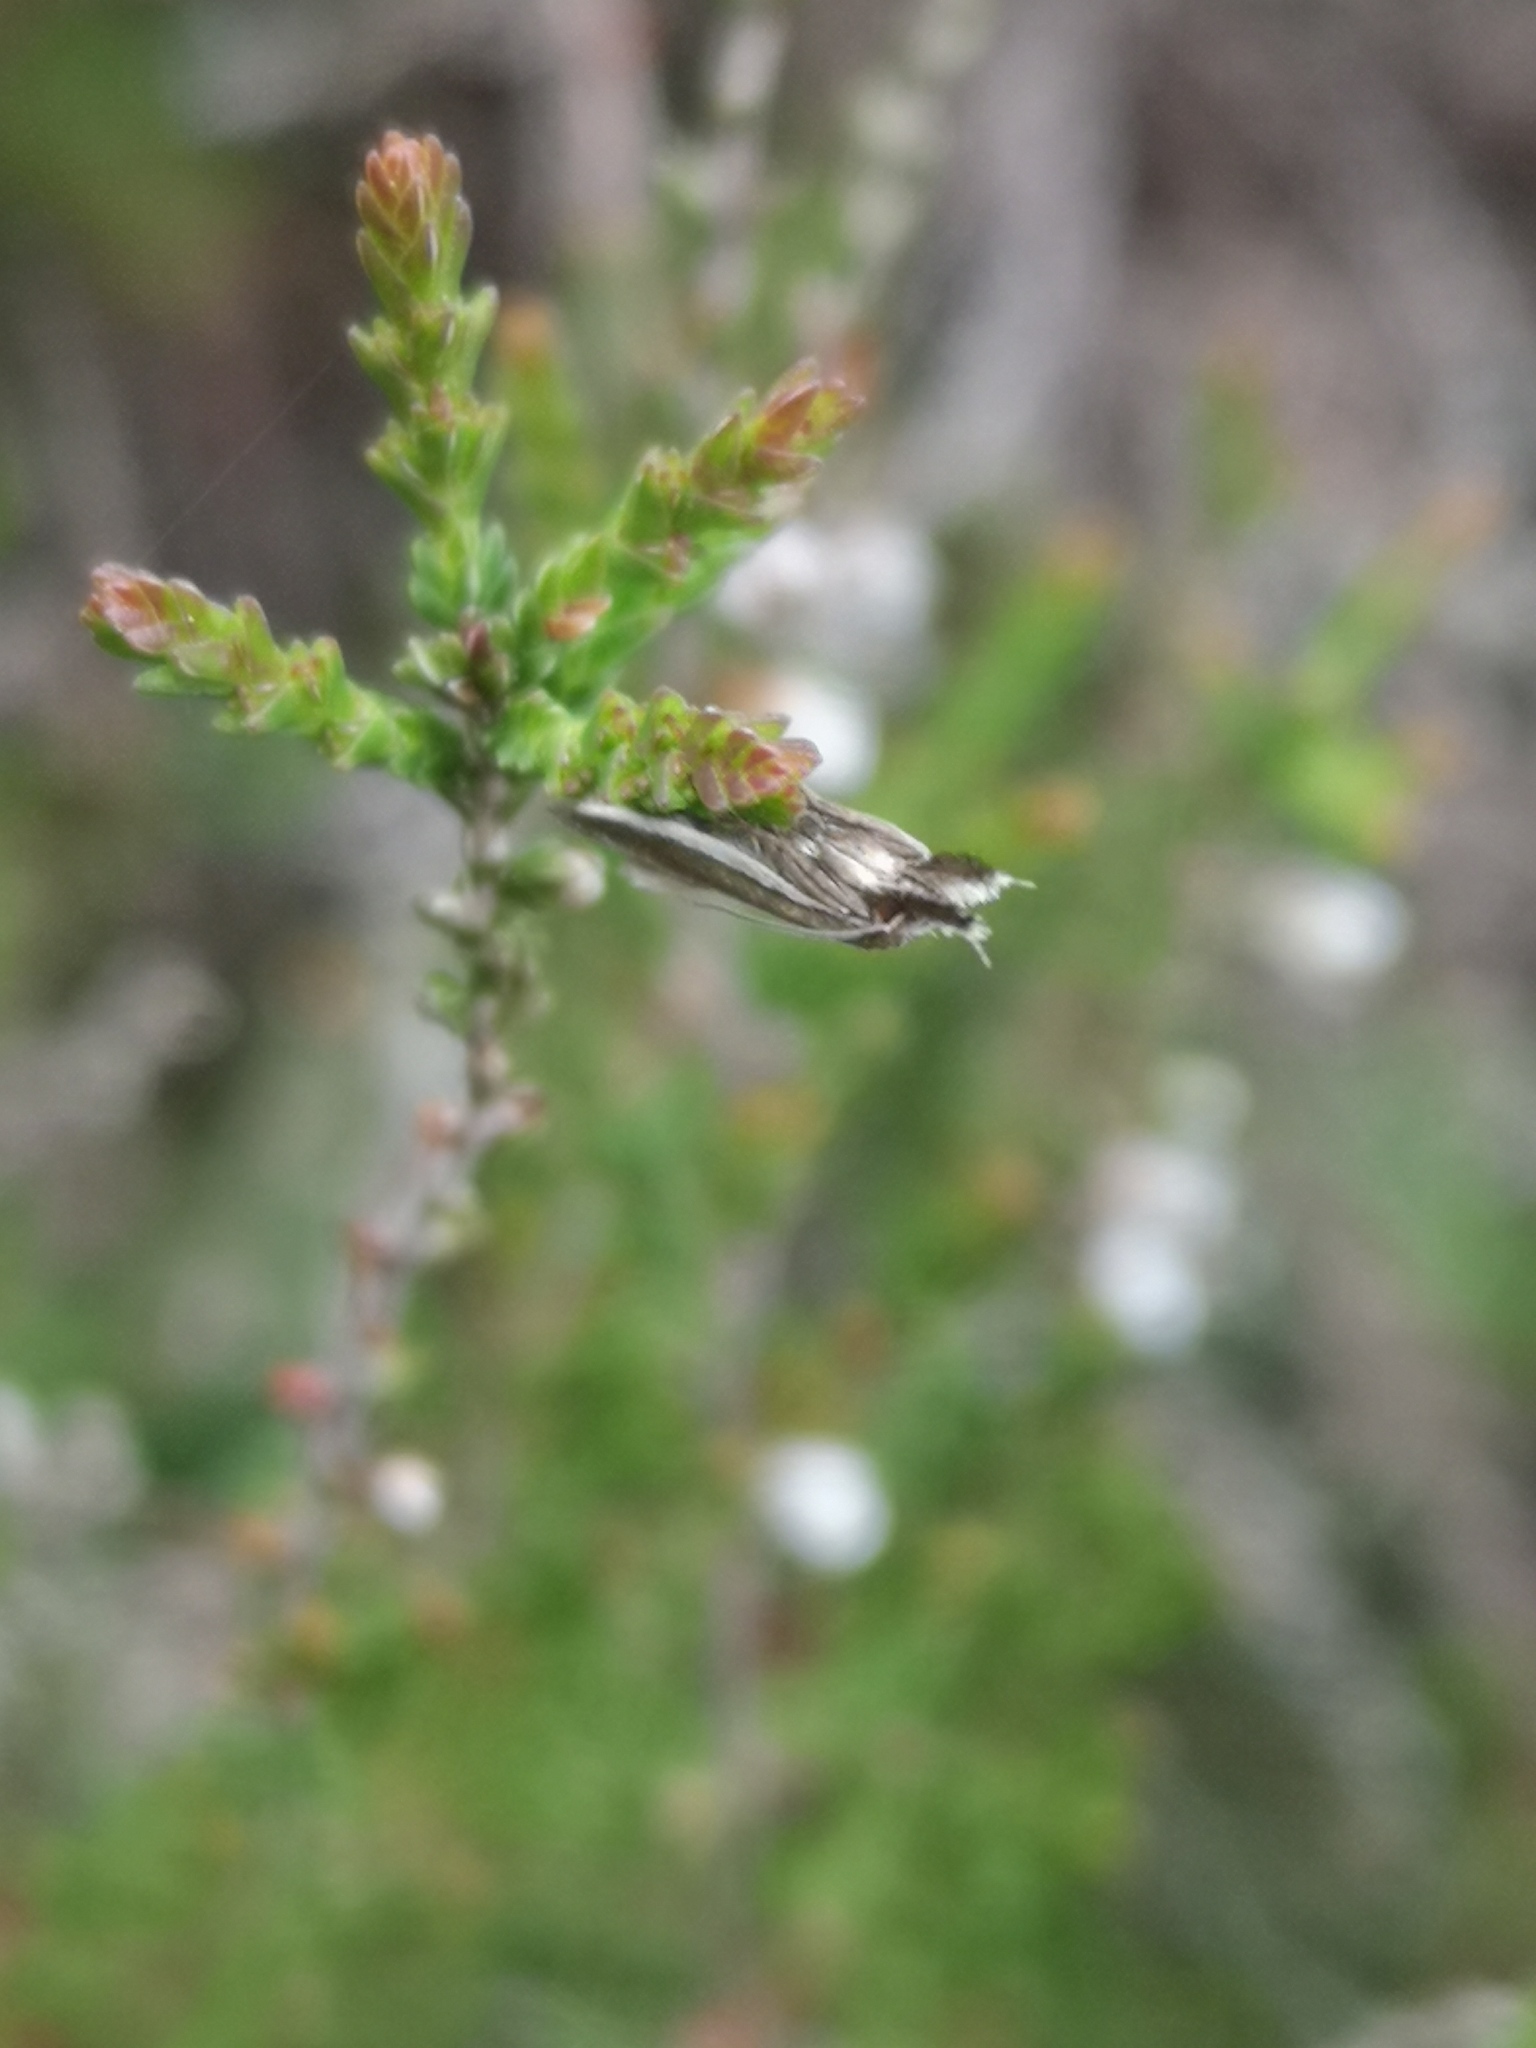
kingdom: Animalia
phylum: Arthropoda
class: Insecta
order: Lepidoptera
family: Oecophoridae
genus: Pleurota
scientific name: Pleurota bicostella
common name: Light streak
